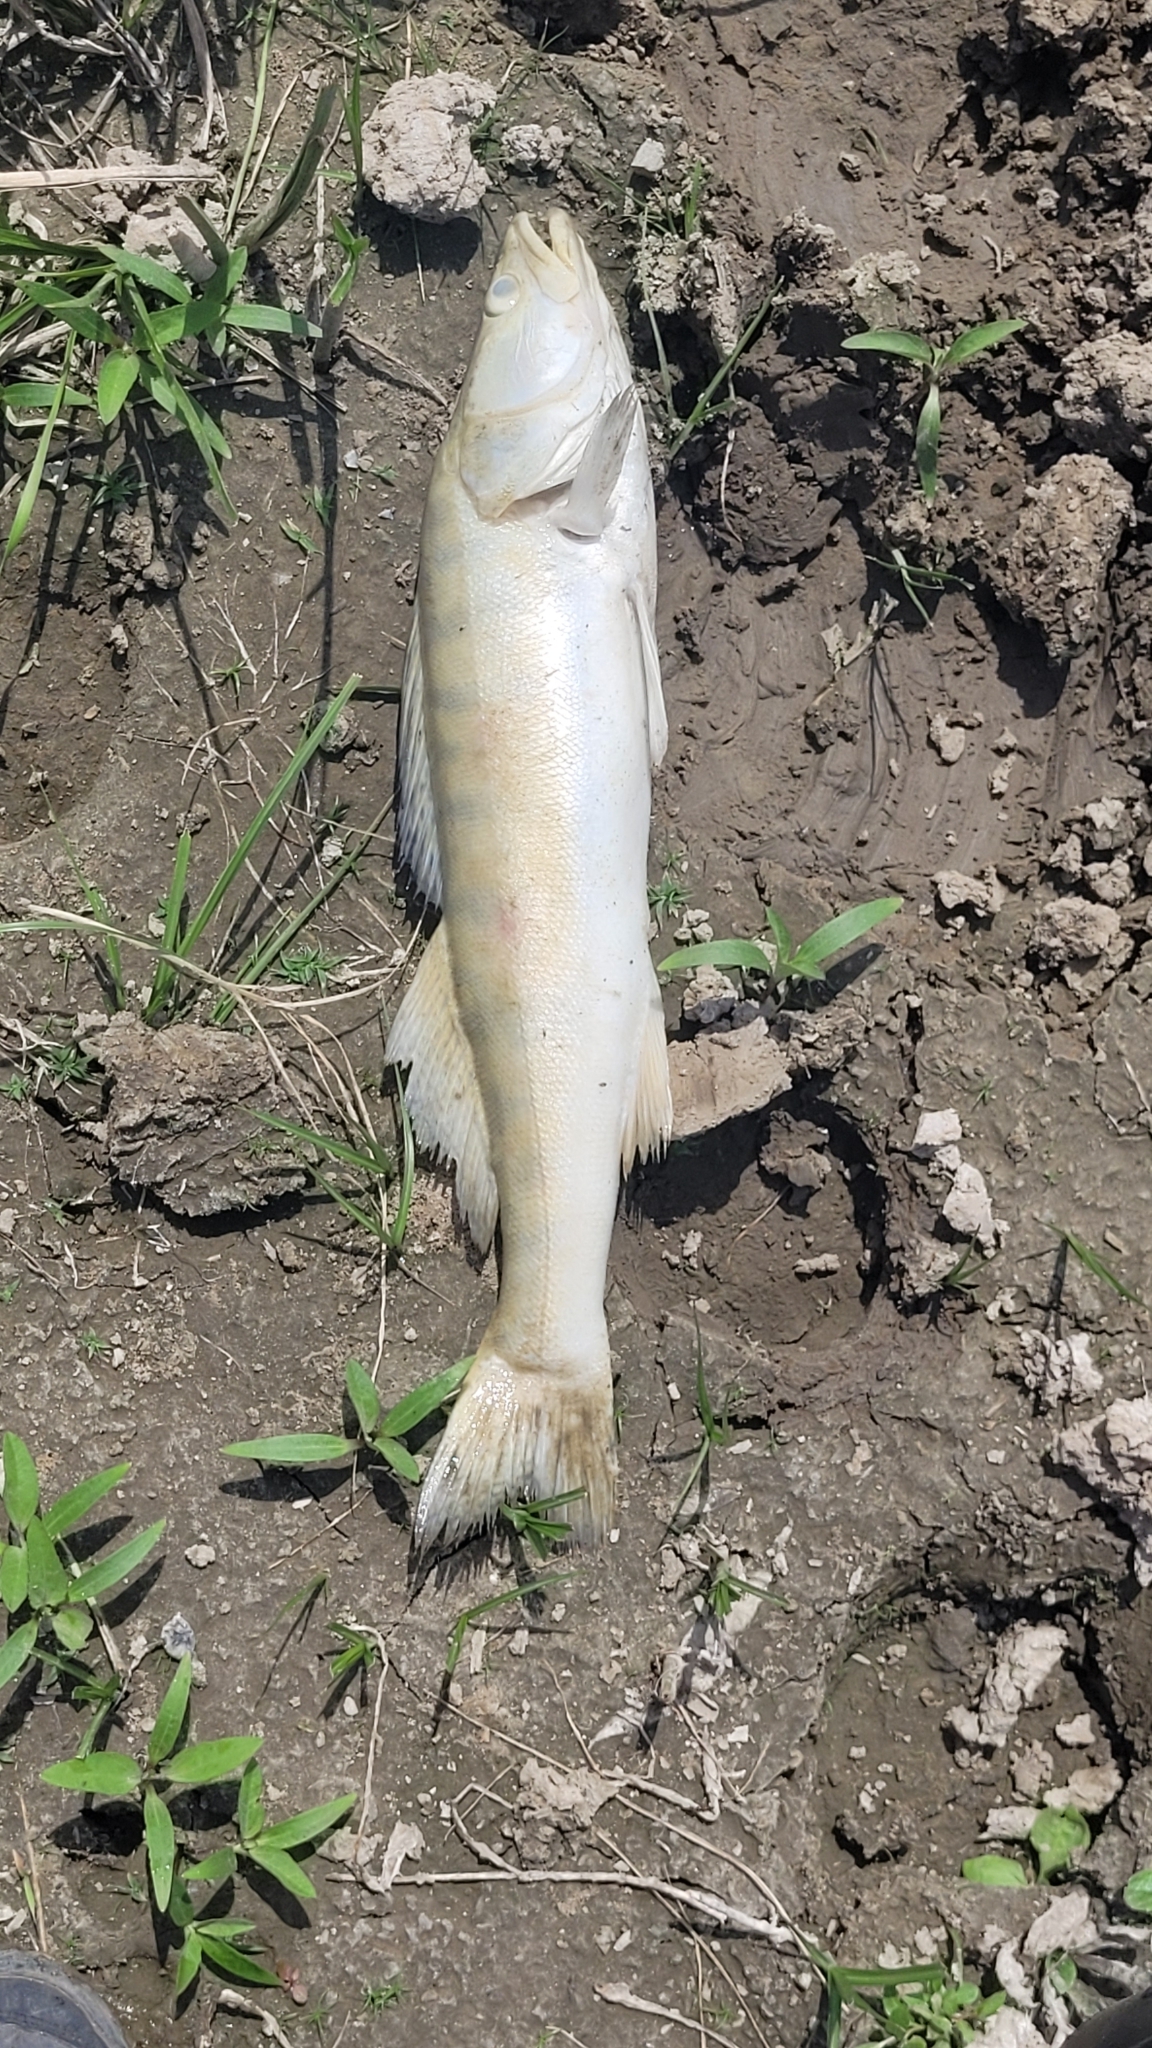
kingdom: Animalia
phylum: Chordata
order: Perciformes
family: Percidae
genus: Sander
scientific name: Sander lucioperca
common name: Pikeperch
